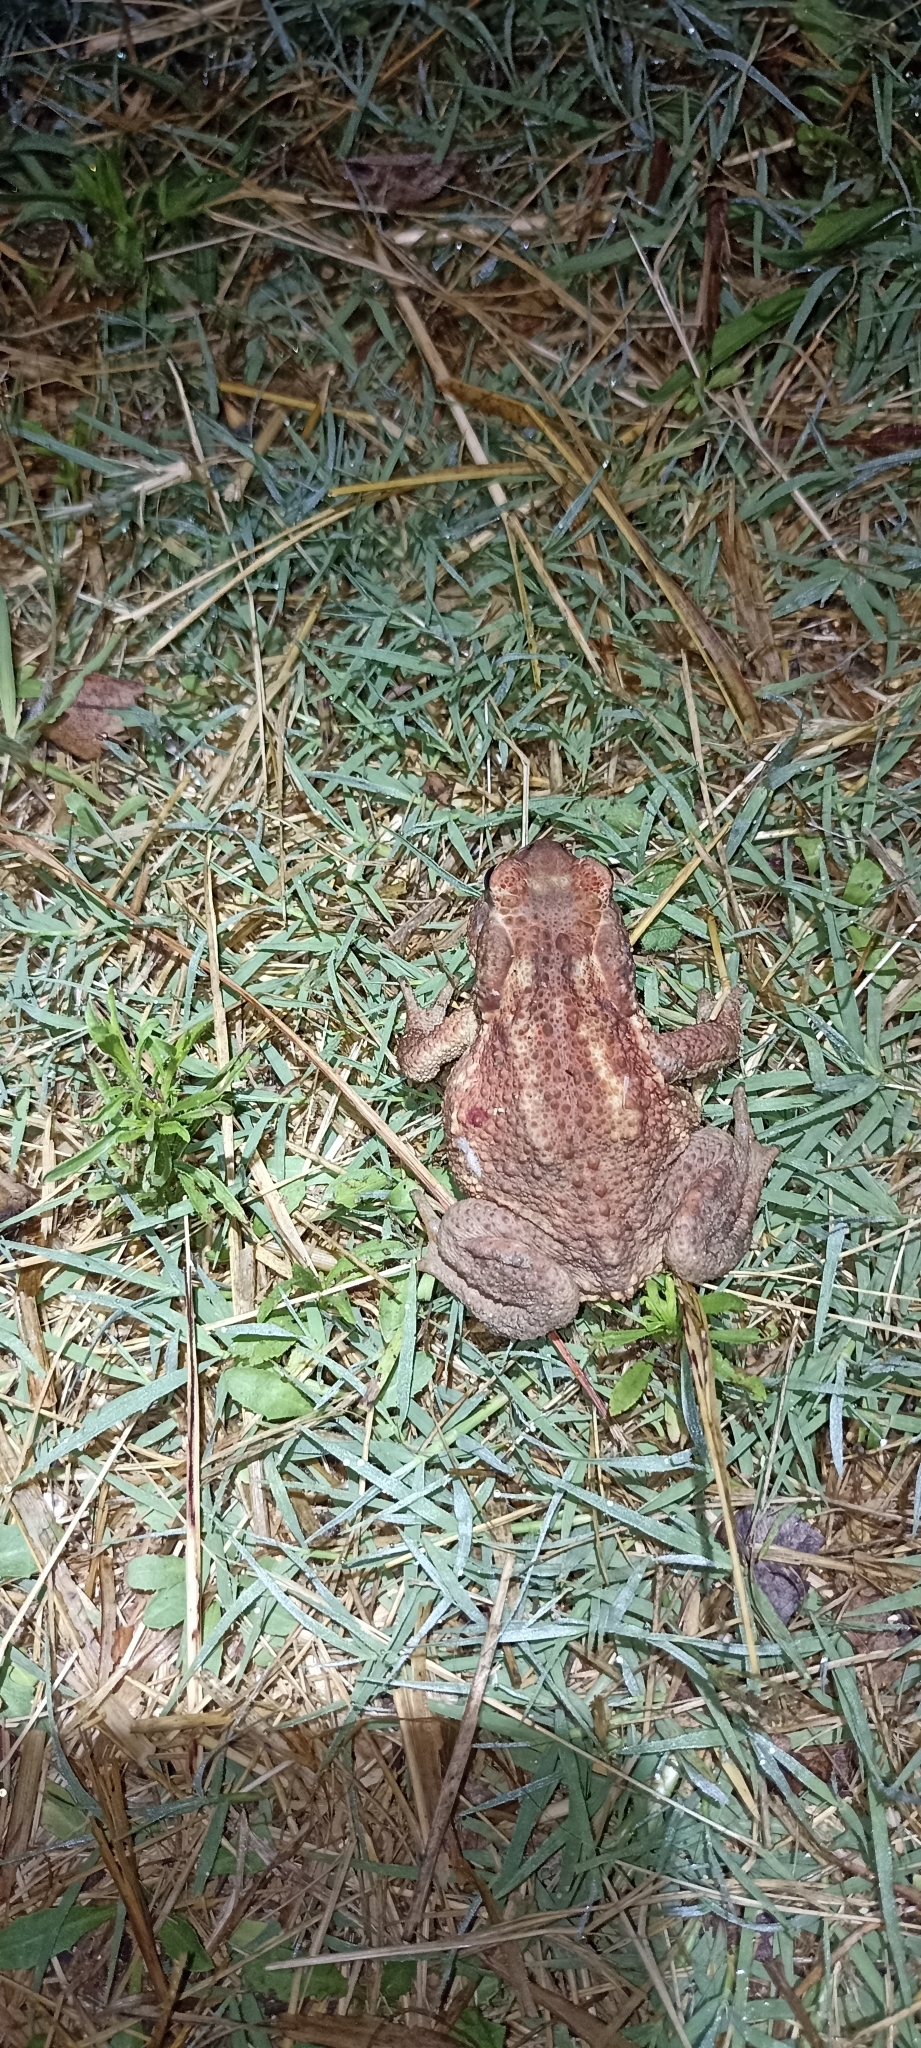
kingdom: Animalia
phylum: Chordata
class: Amphibia
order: Anura
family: Bufonidae
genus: Bufo
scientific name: Bufo spinosus
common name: Western common toad
